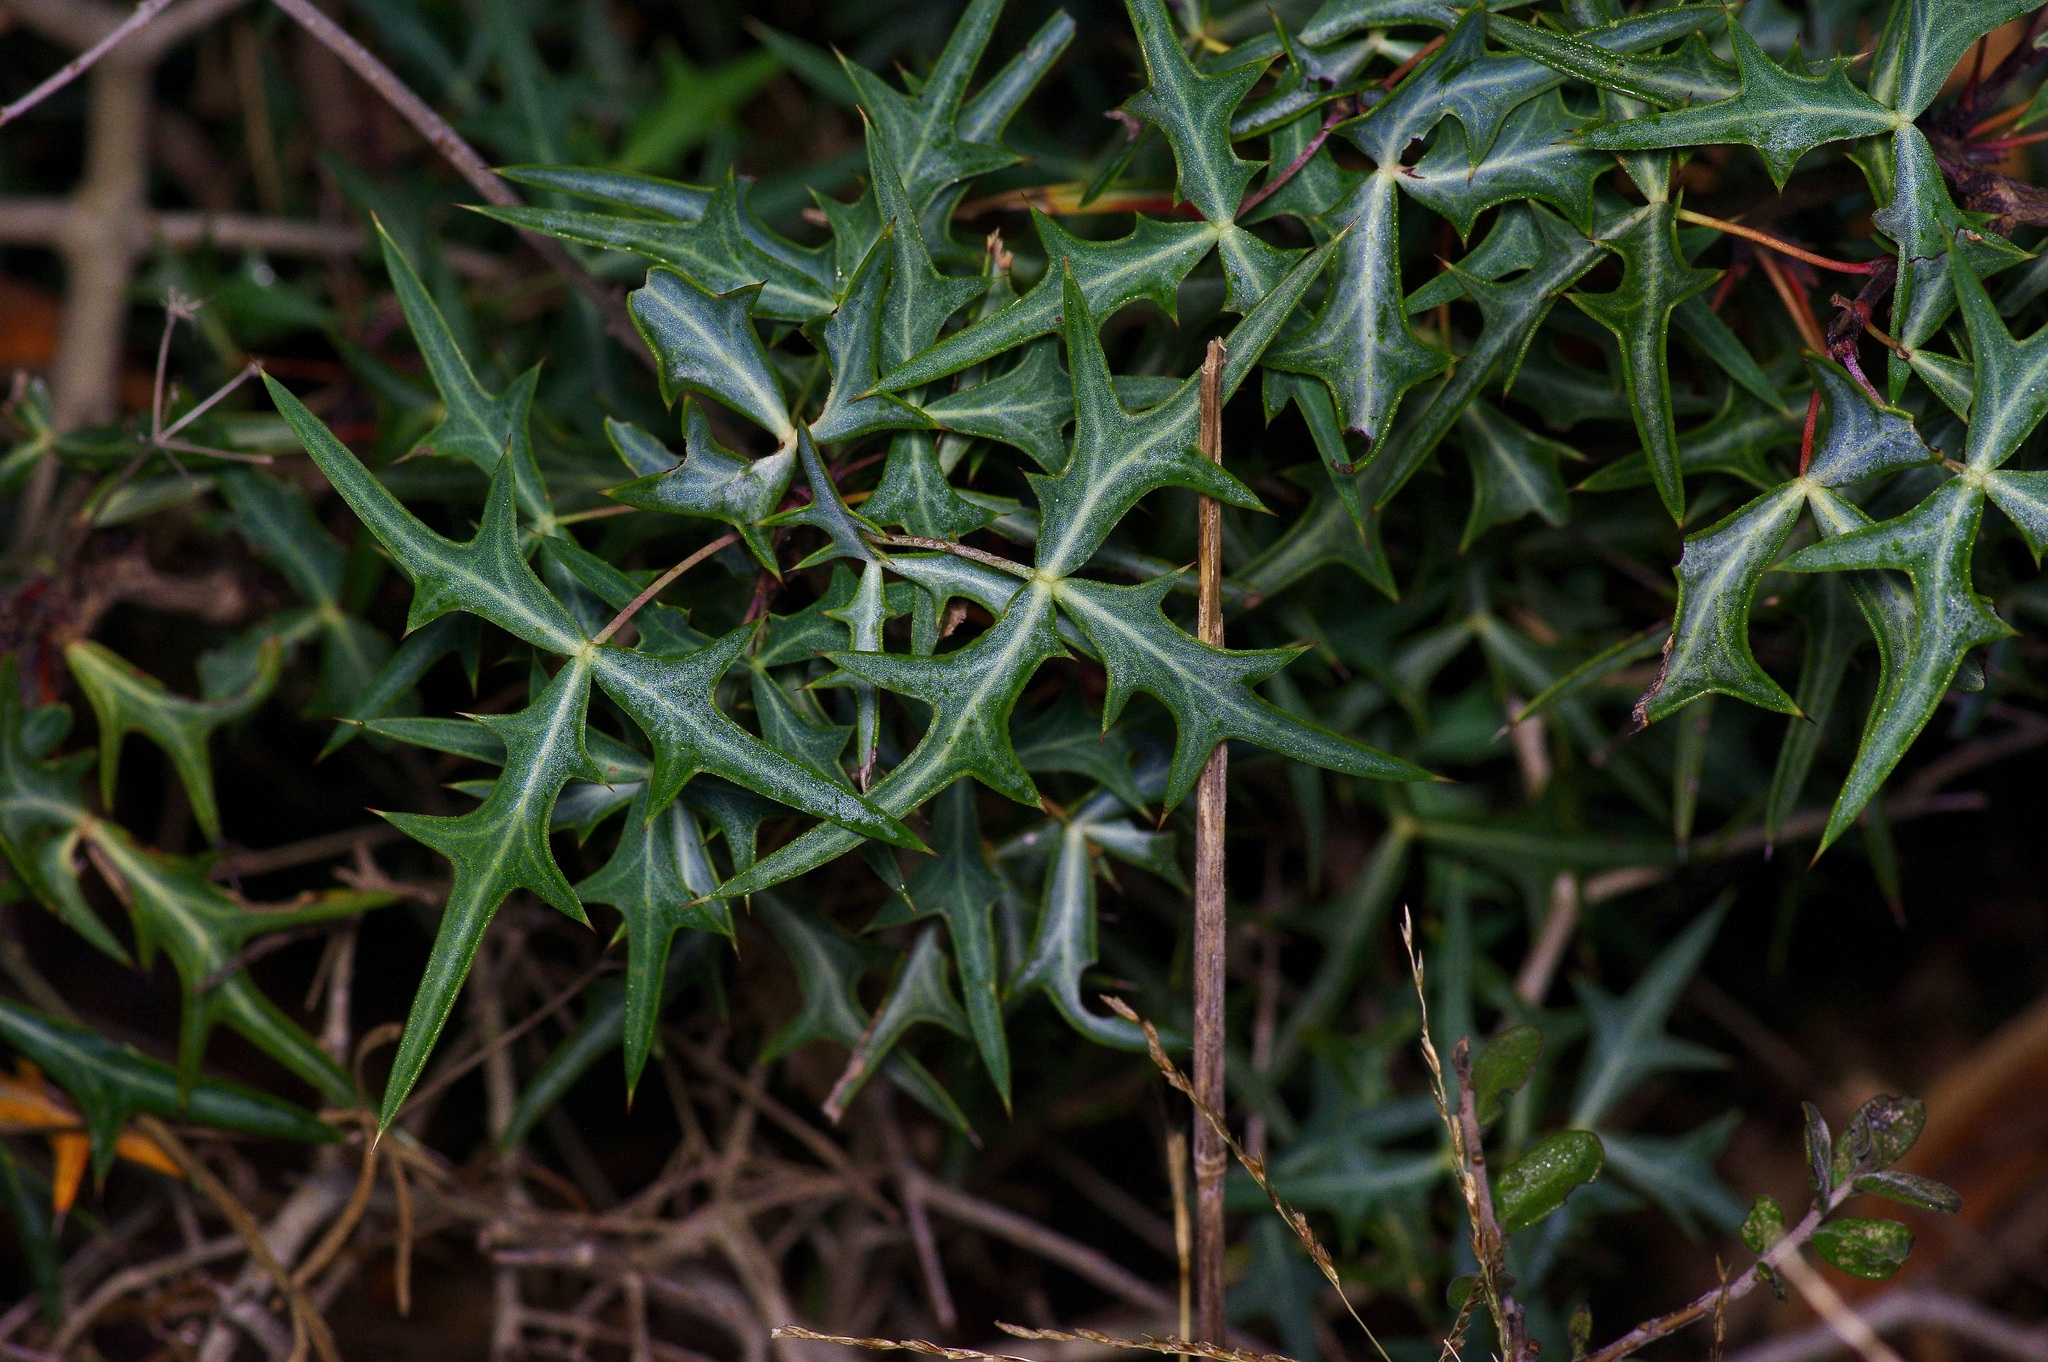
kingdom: Plantae
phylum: Tracheophyta
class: Magnoliopsida
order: Ranunculales
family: Berberidaceae
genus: Alloberberis
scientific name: Alloberberis trifoliolata
